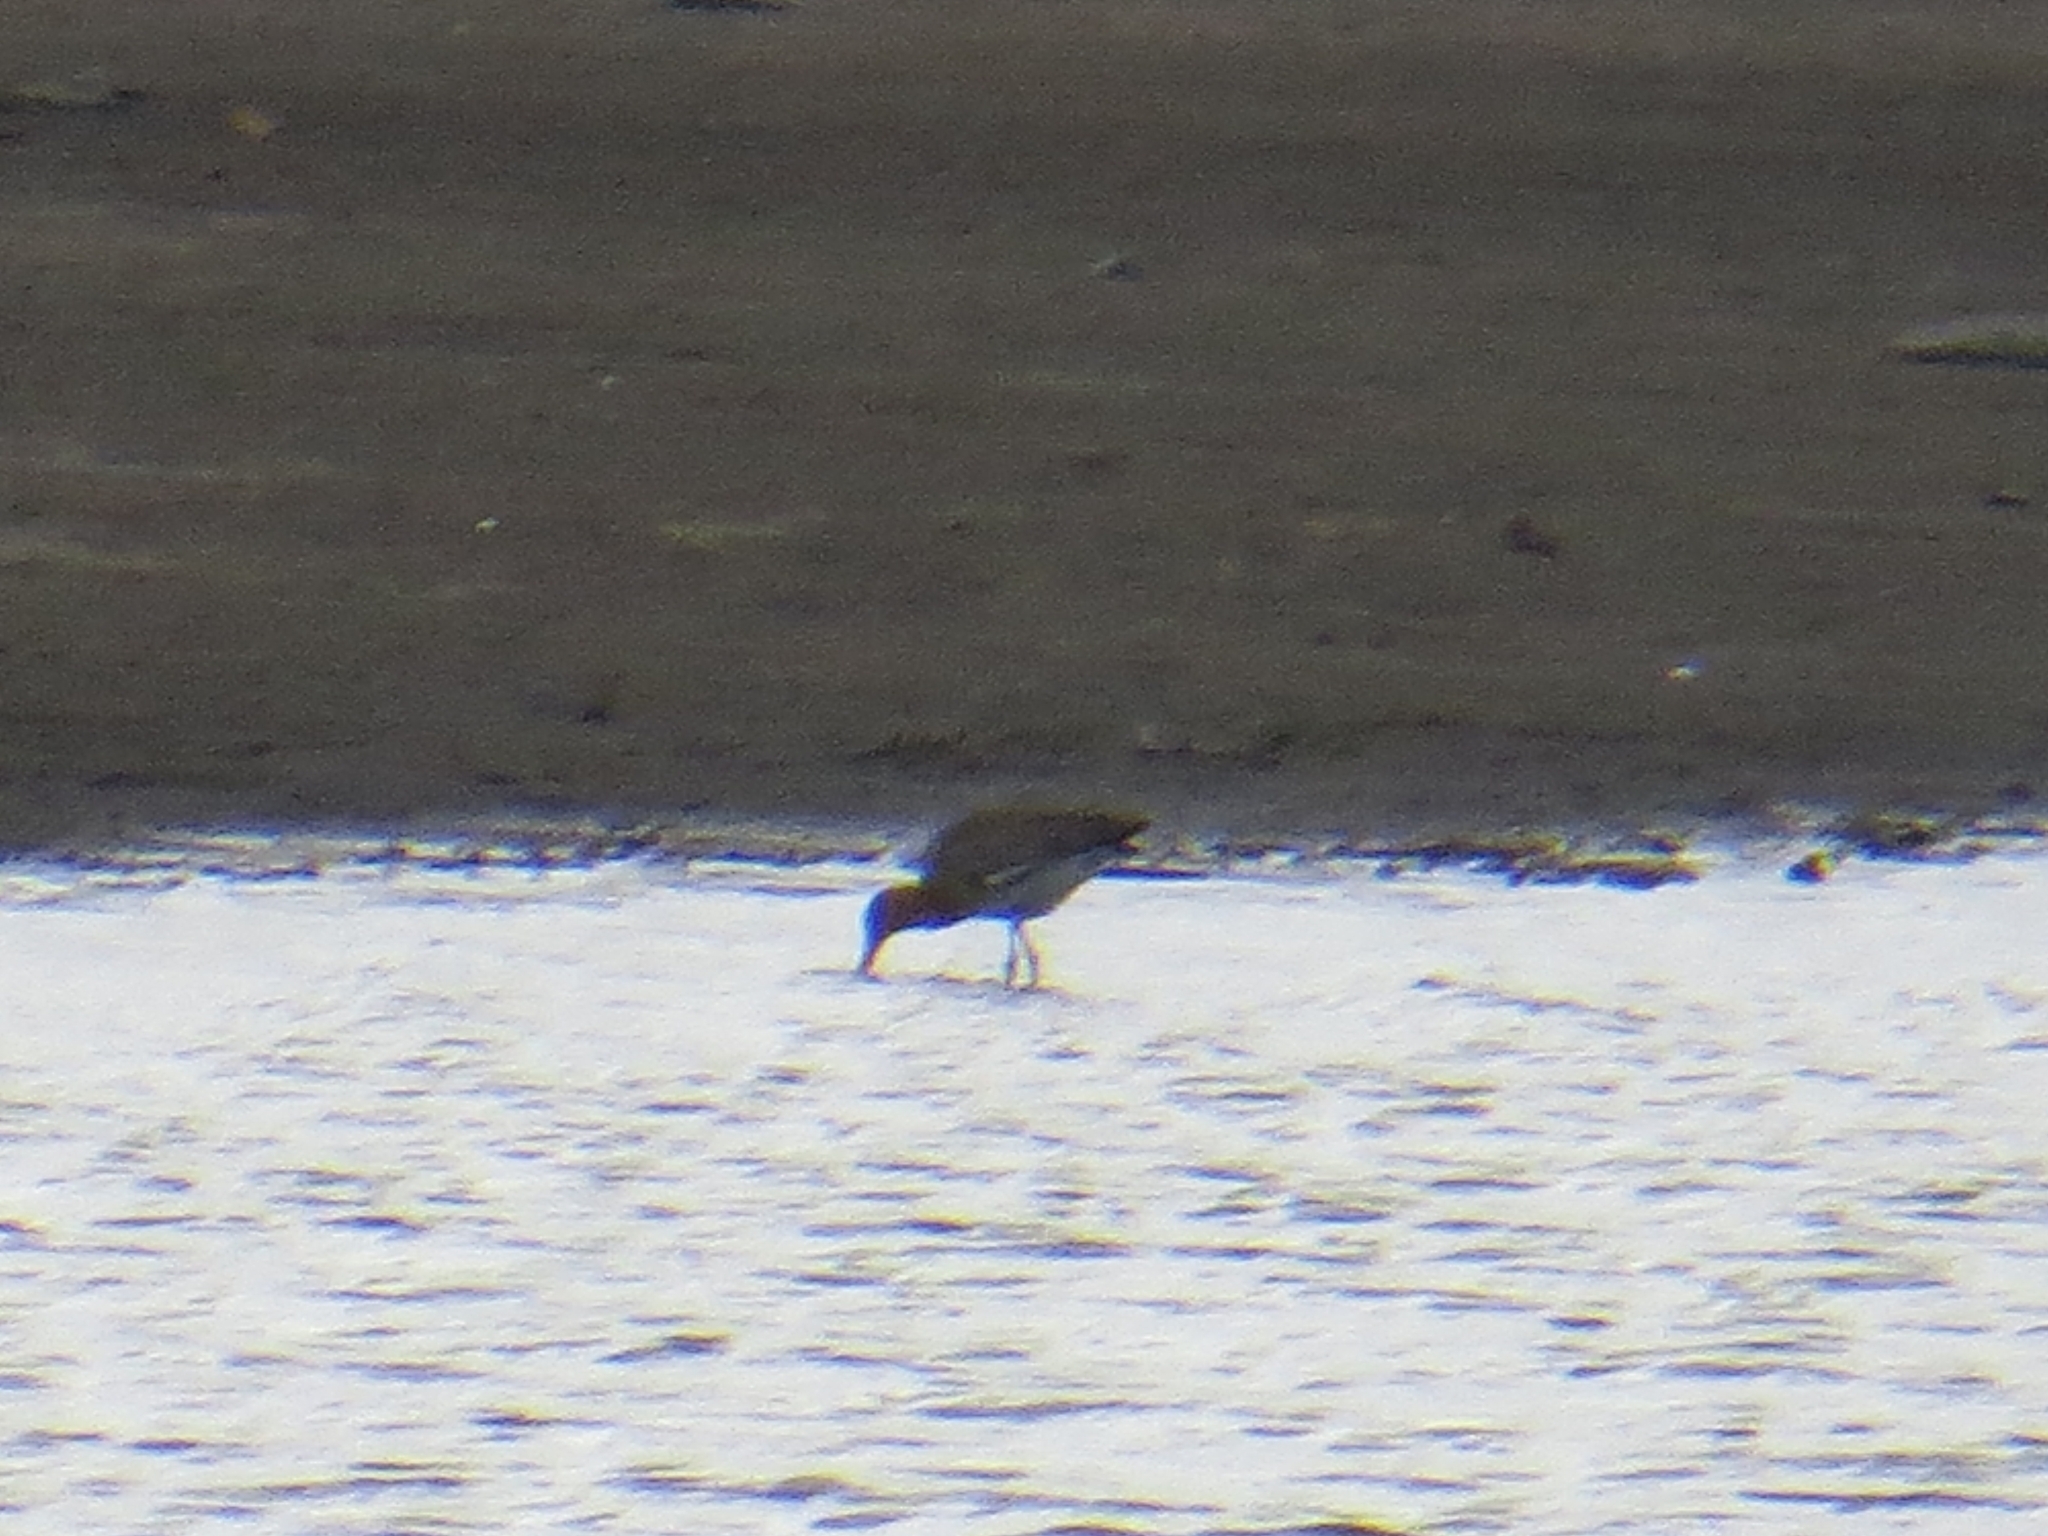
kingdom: Animalia
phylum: Chordata
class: Aves
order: Charadriiformes
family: Scolopacidae
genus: Limosa
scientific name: Limosa limosa
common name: Black-tailed godwit
